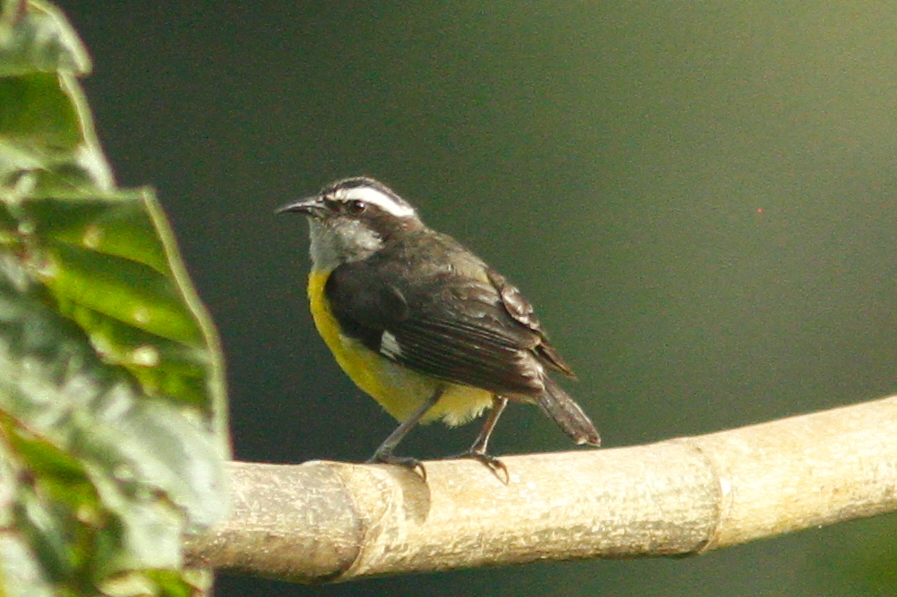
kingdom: Animalia
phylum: Chordata
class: Aves
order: Passeriformes
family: Thraupidae
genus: Coereba
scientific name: Coereba flaveola
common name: Bananaquit
